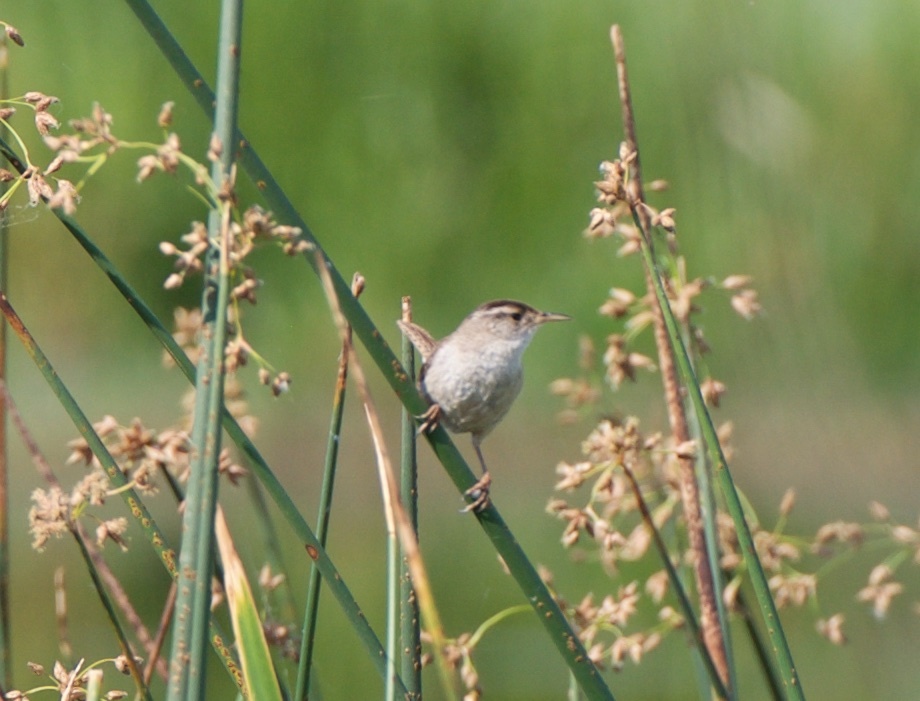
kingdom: Animalia
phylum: Chordata
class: Aves
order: Passeriformes
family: Troglodytidae
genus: Cistothorus
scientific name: Cistothorus palustris
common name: Marsh wren
